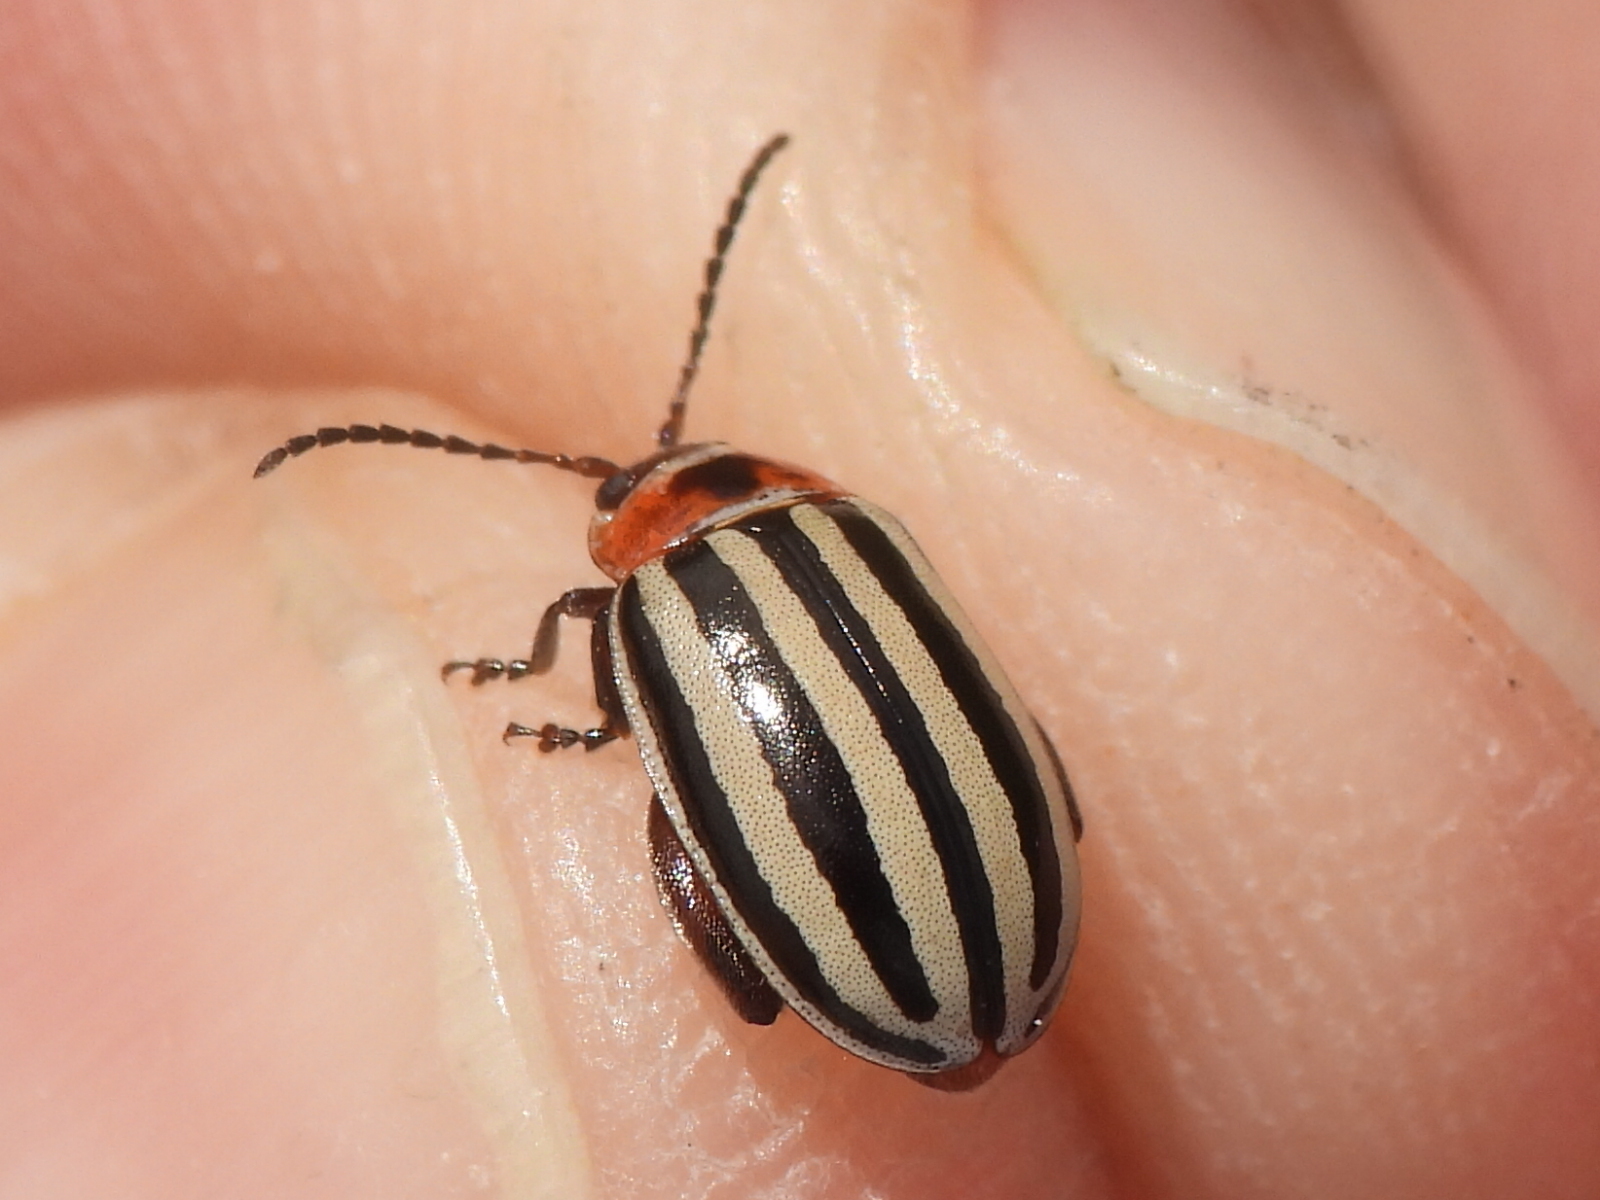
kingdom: Animalia
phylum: Arthropoda
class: Insecta
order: Coleoptera
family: Chrysomelidae
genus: Kuschelina
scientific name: Kuschelina petaurista
